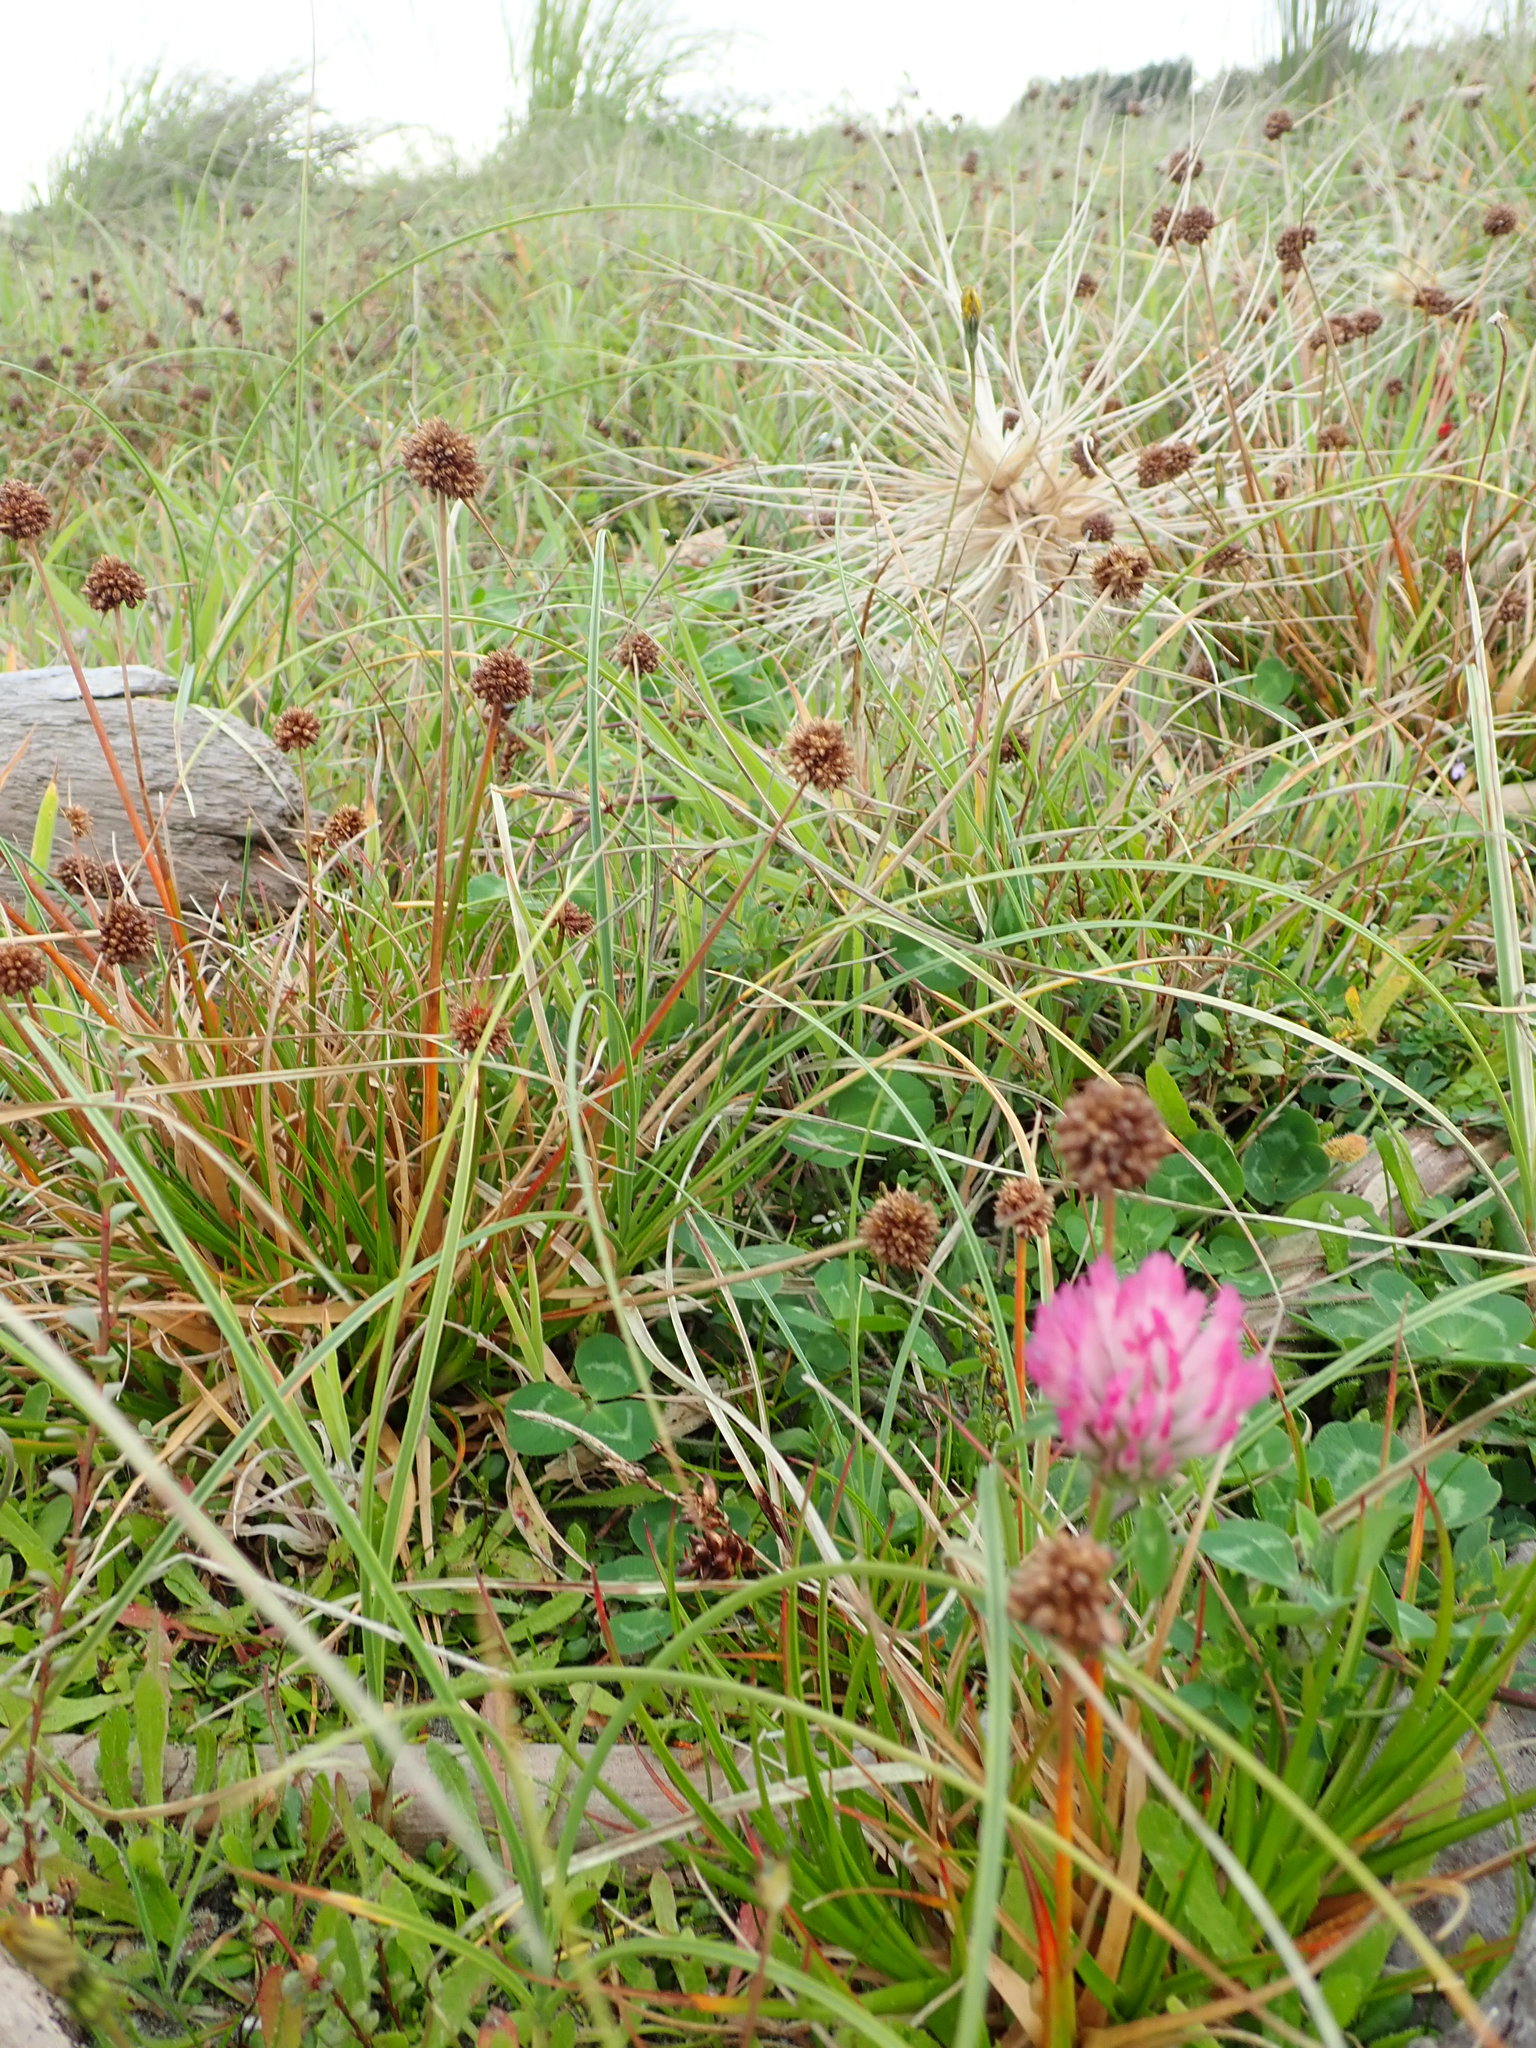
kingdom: Plantae
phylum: Tracheophyta
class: Magnoliopsida
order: Fabales
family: Fabaceae
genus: Trifolium
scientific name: Trifolium pratense
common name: Red clover
